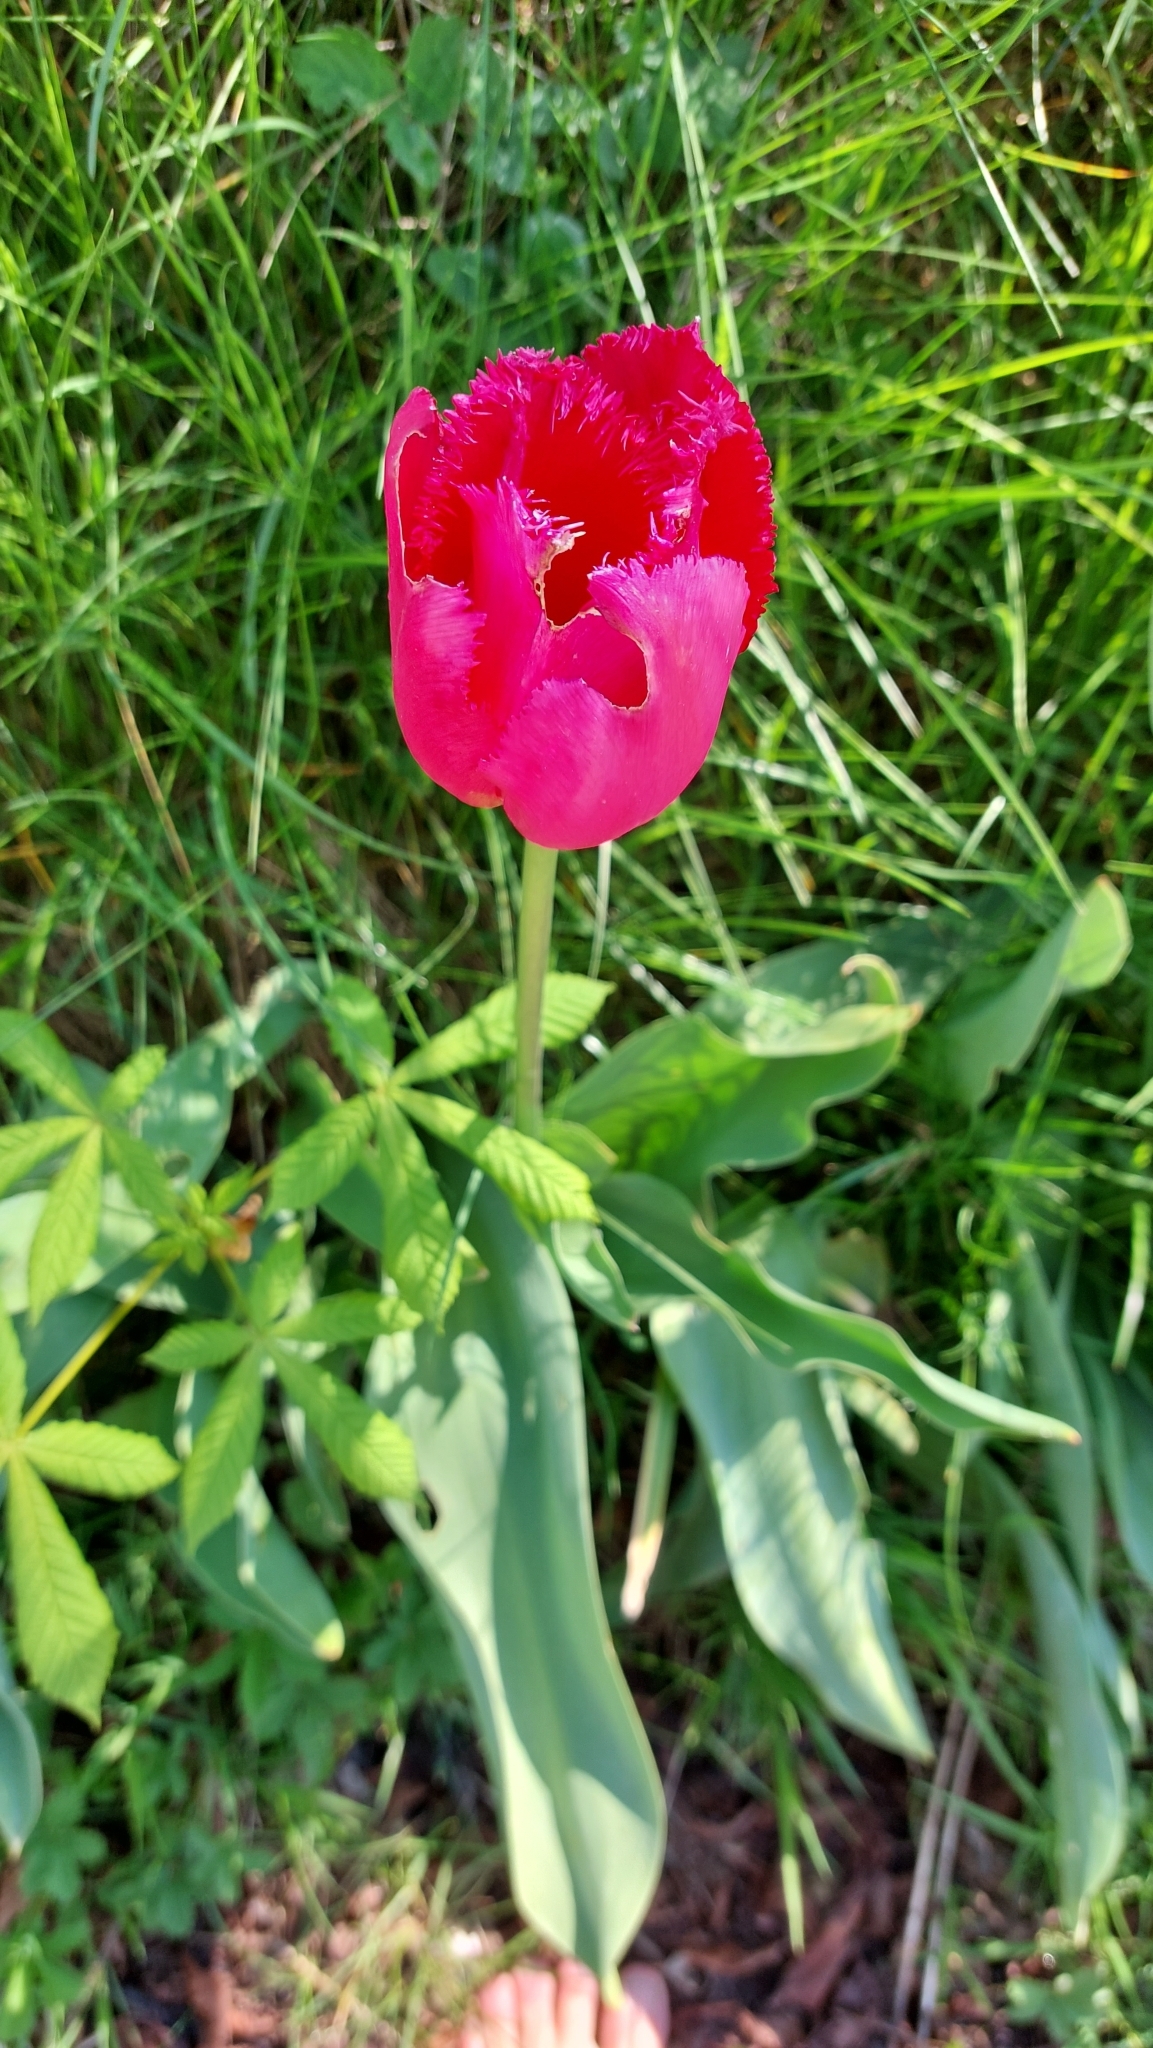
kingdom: Plantae
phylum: Tracheophyta
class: Liliopsida
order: Liliales
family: Liliaceae
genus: Tulipa
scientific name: Tulipa gesneriana
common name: Garden tulip
